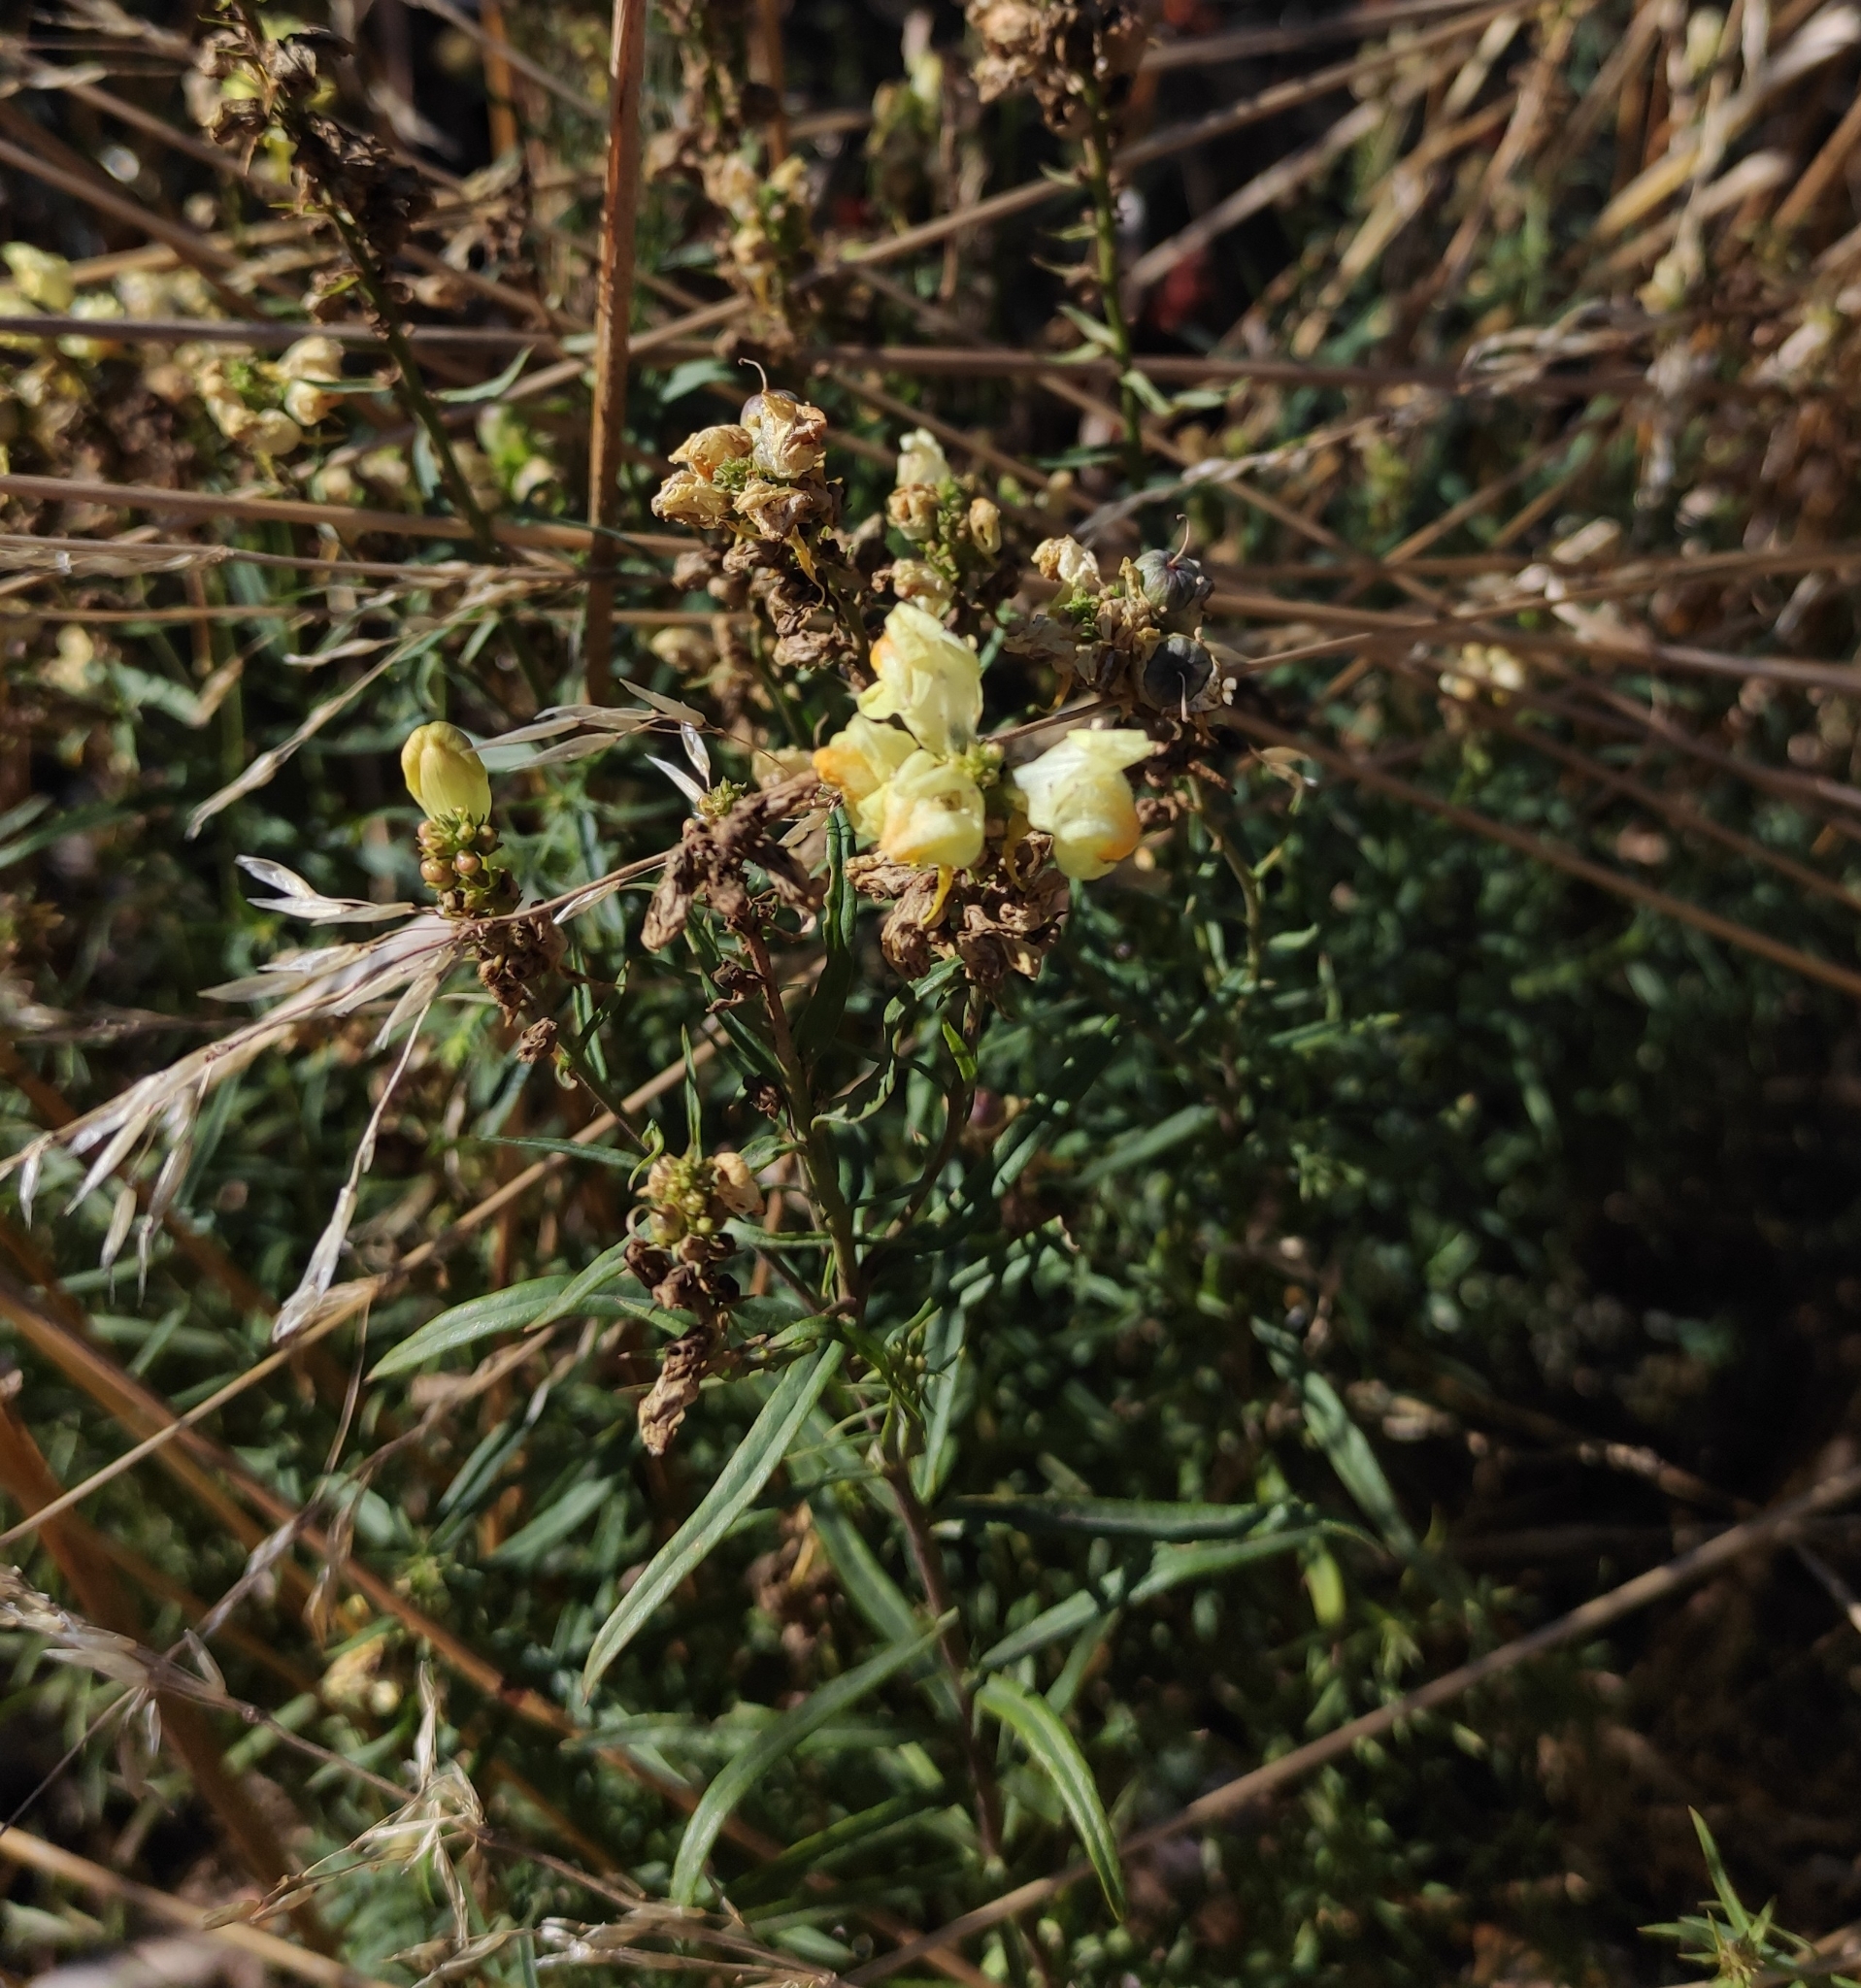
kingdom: Plantae
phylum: Tracheophyta
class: Magnoliopsida
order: Lamiales
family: Plantaginaceae
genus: Linaria
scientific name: Linaria biebersteinii
